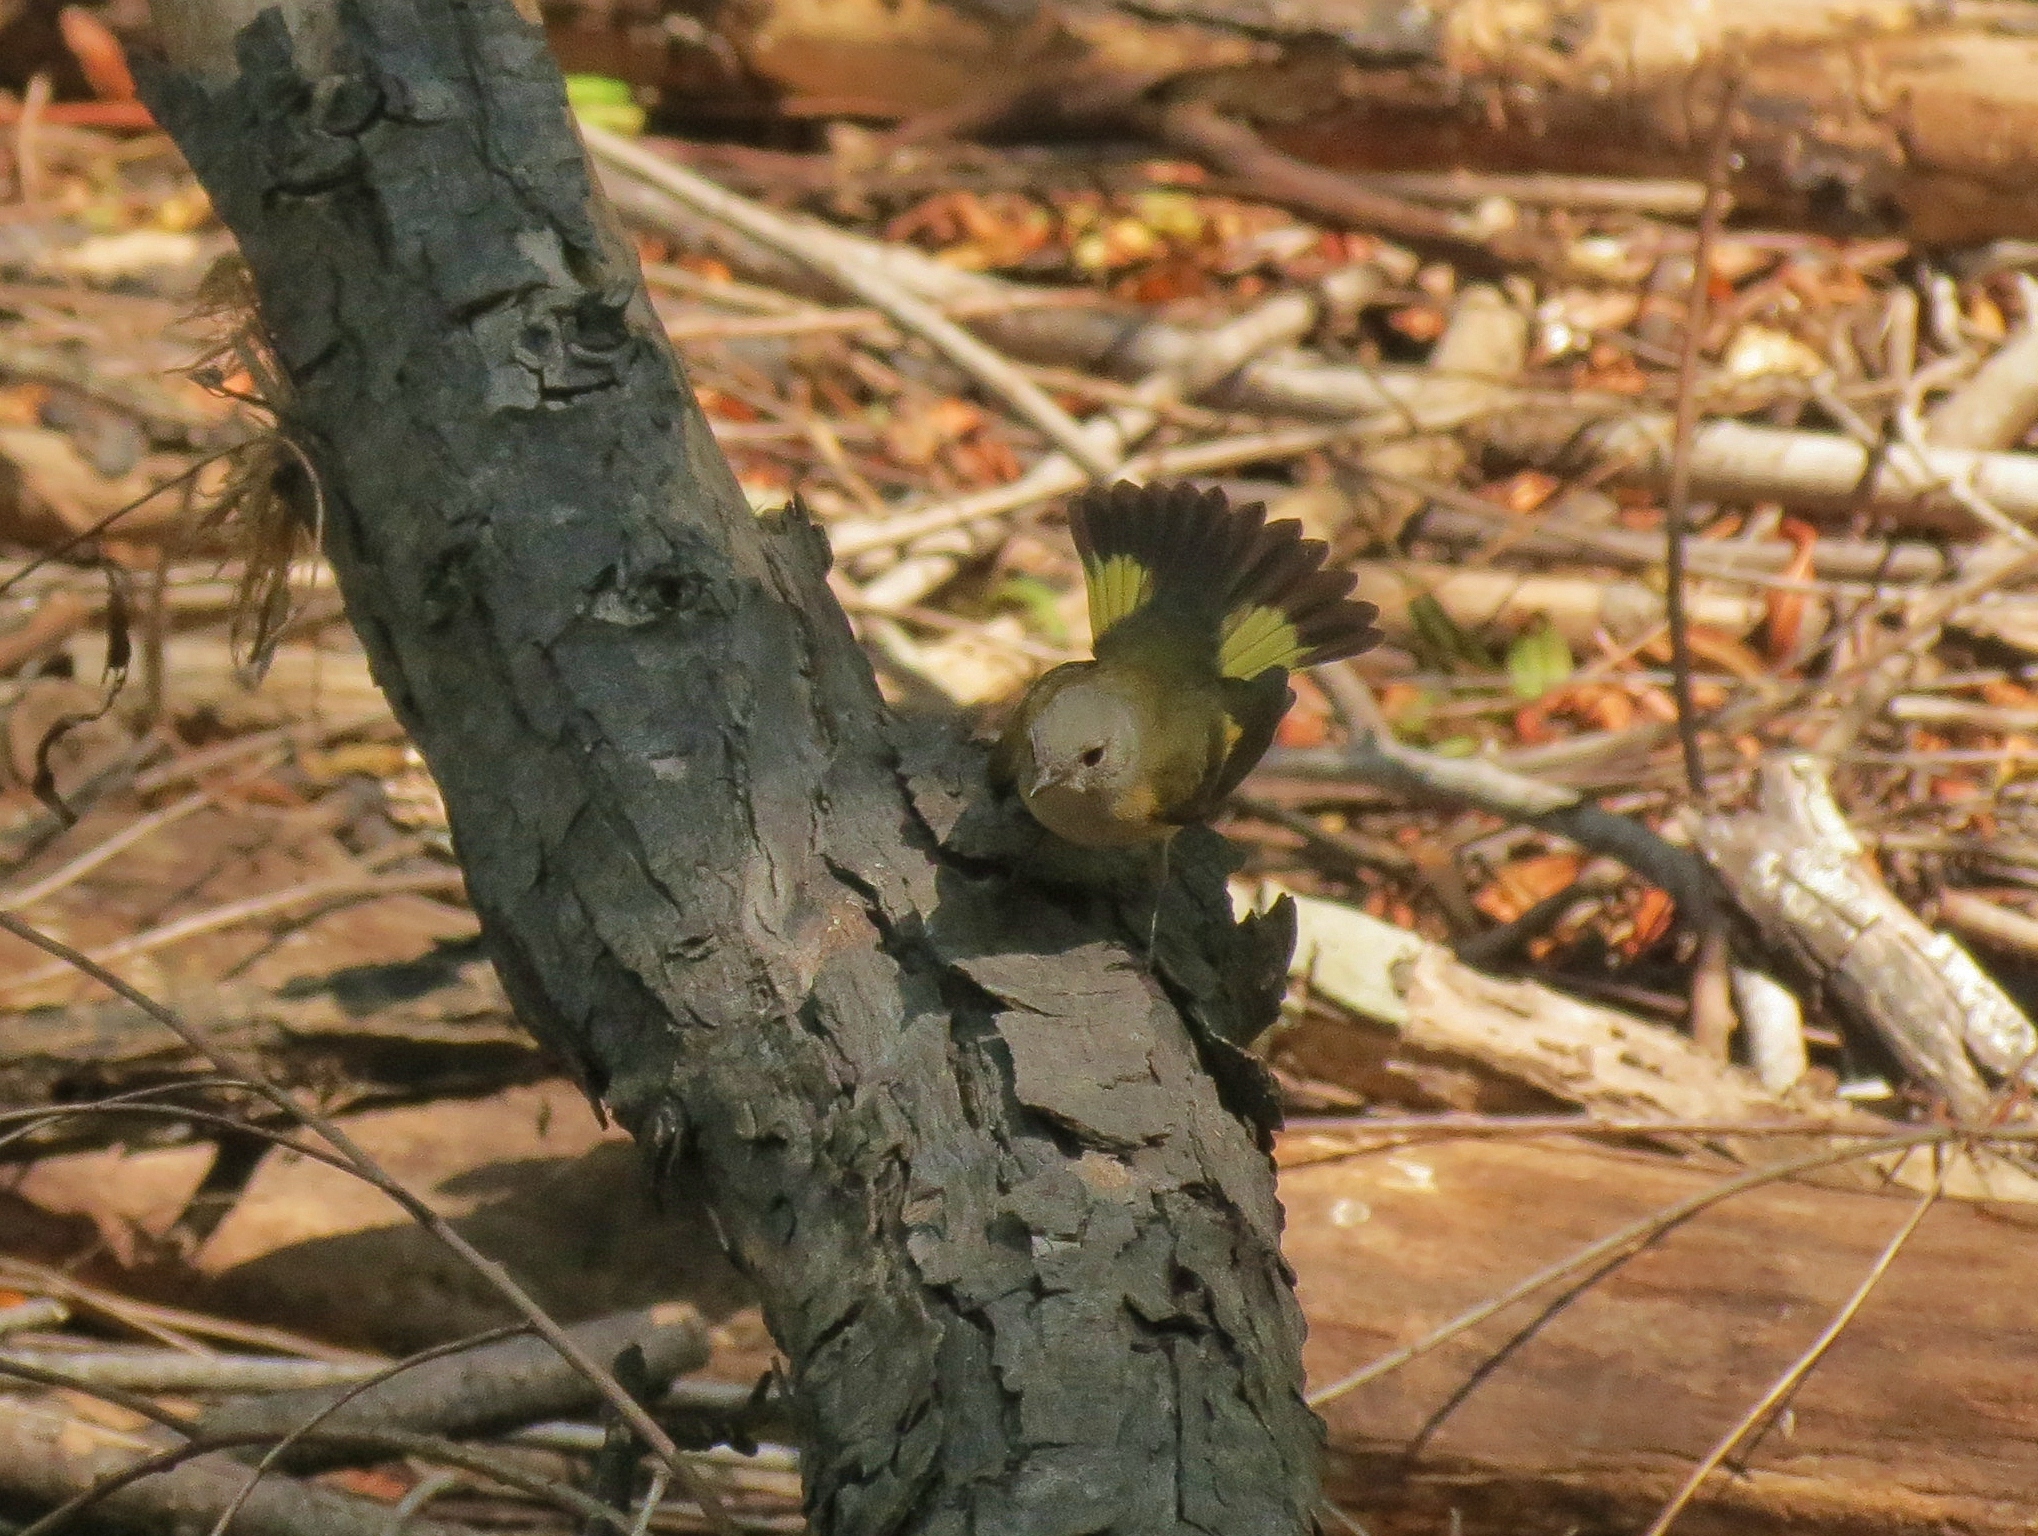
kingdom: Animalia
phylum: Chordata
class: Aves
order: Passeriformes
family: Parulidae
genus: Setophaga
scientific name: Setophaga ruticilla
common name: American redstart
